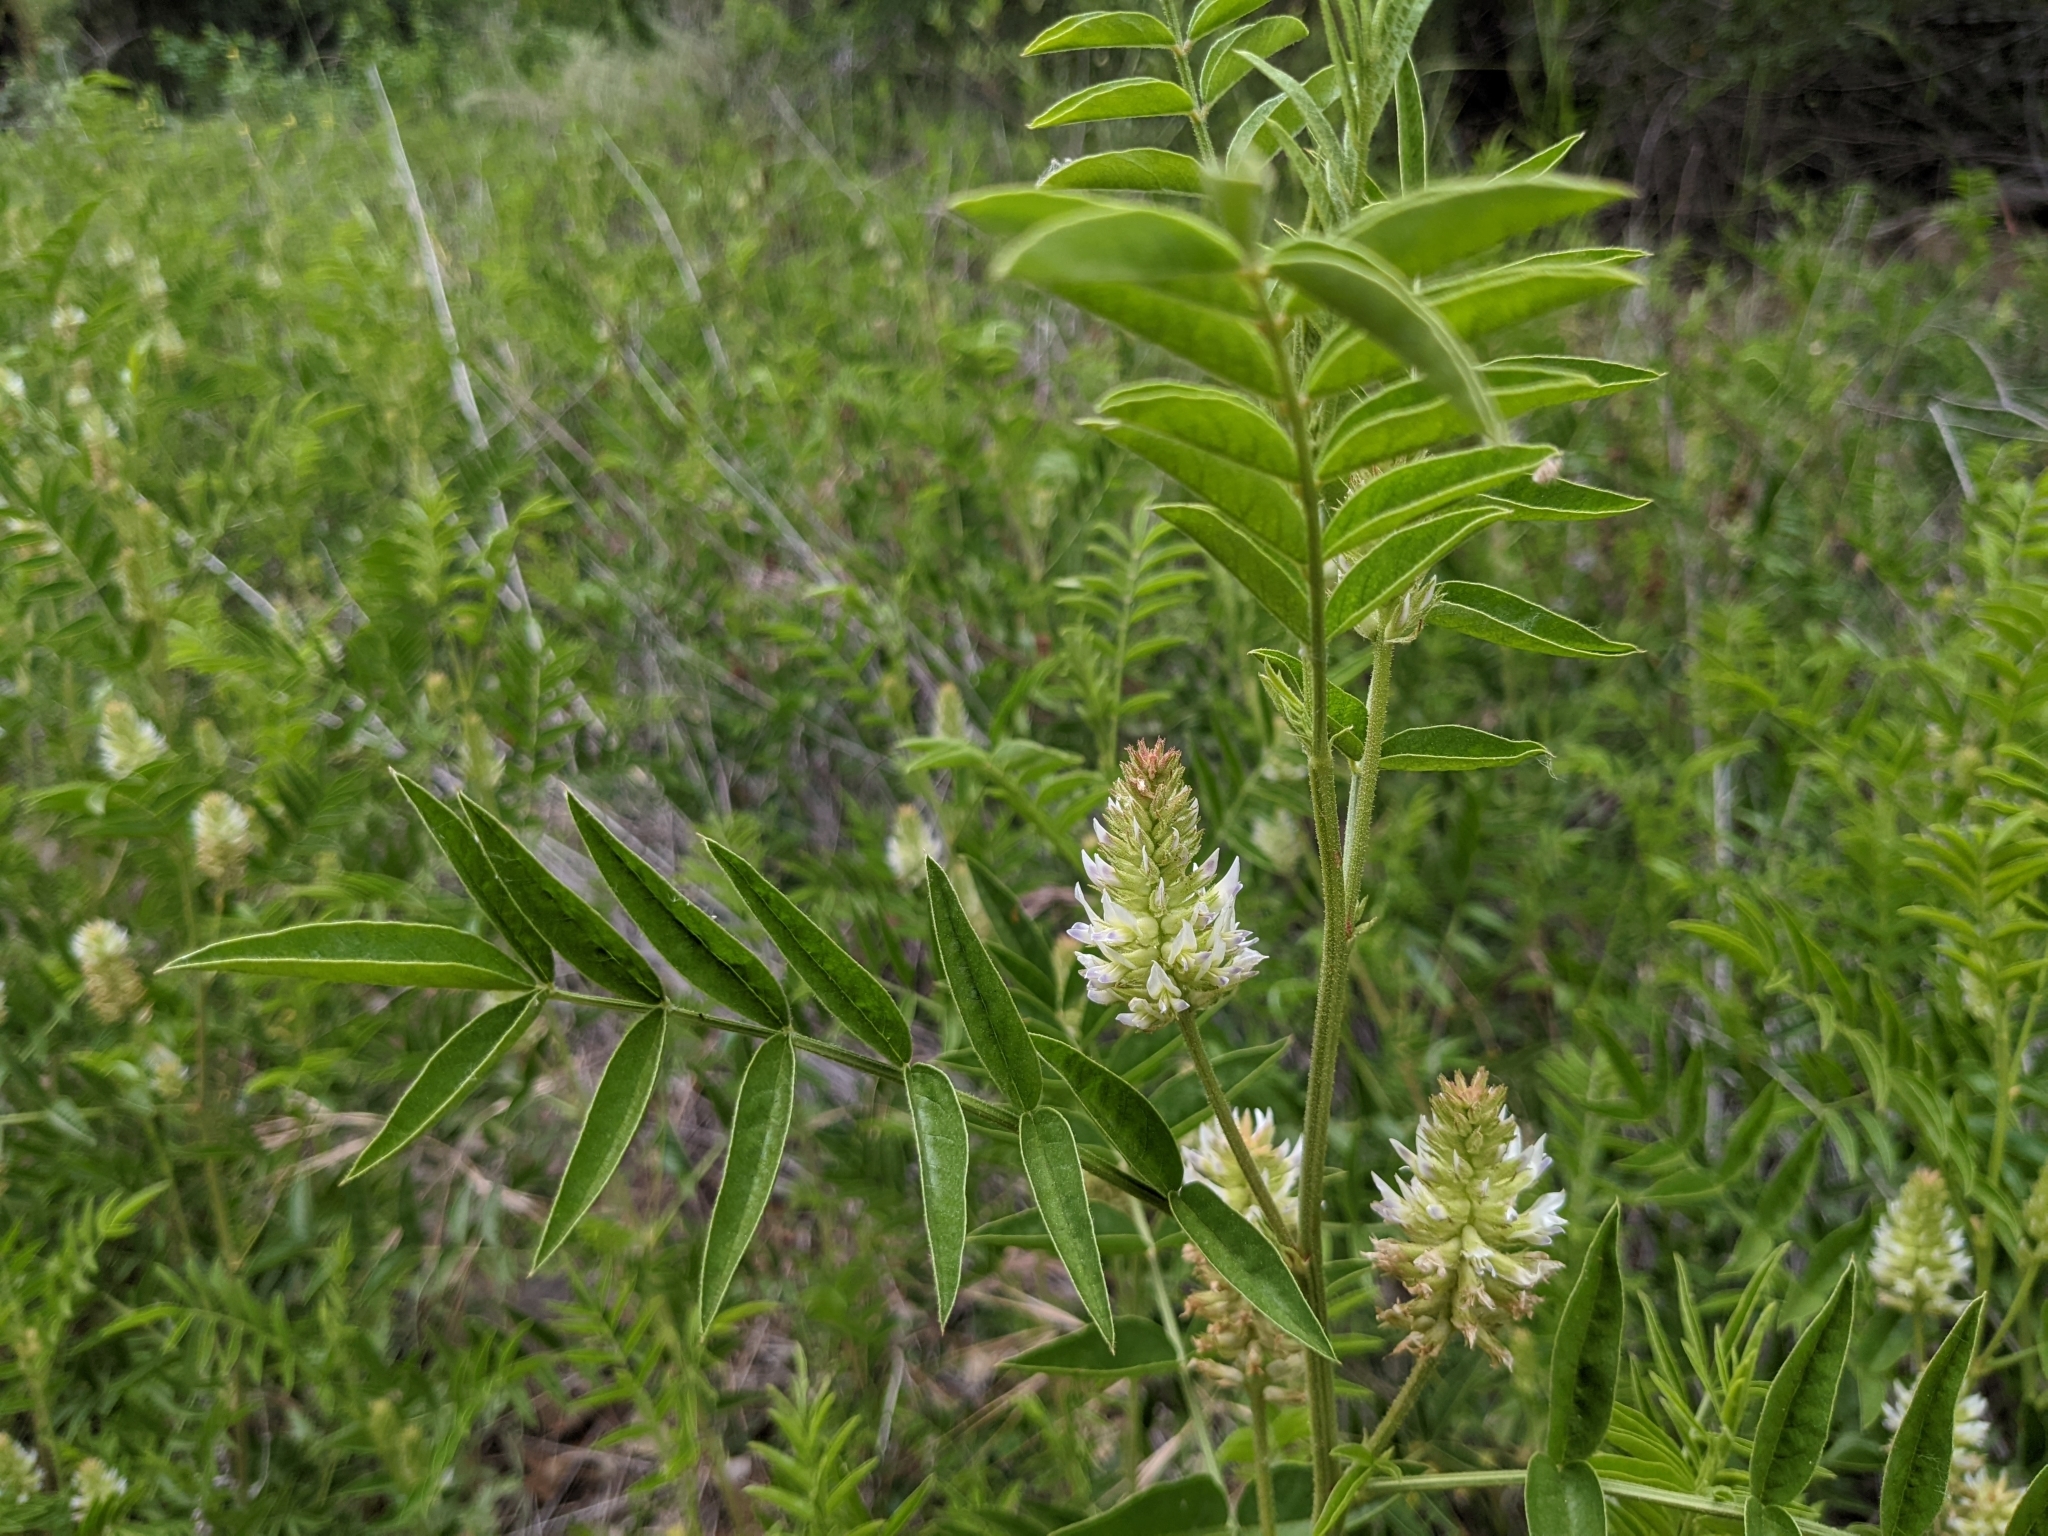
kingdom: Plantae
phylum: Tracheophyta
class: Magnoliopsida
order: Fabales
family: Fabaceae
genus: Glycyrrhiza
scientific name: Glycyrrhiza lepidota
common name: American liquorice
